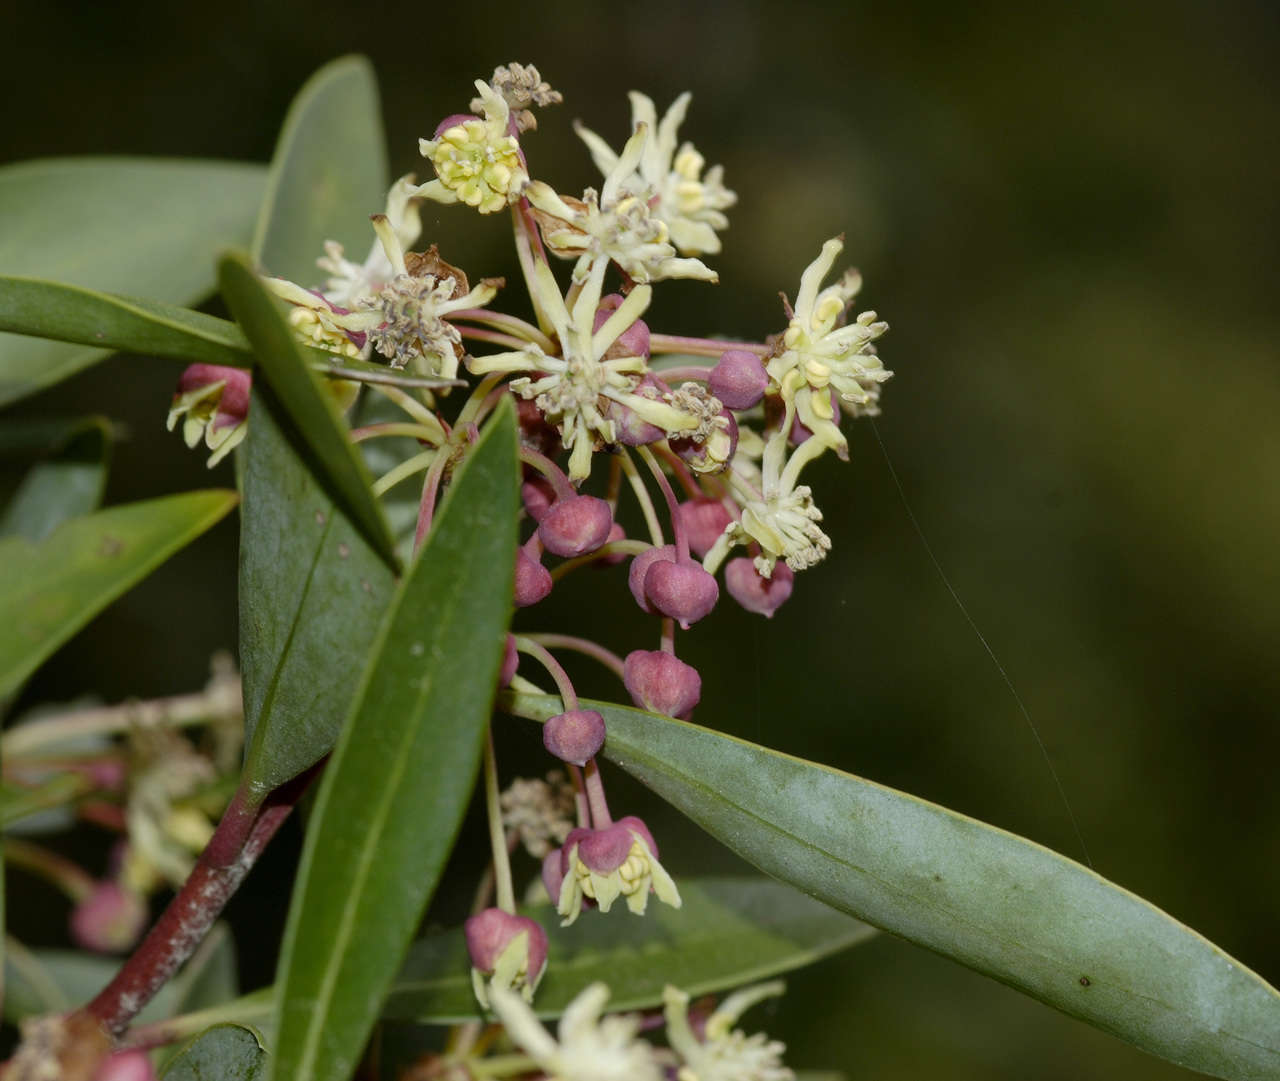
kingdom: Plantae
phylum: Tracheophyta
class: Magnoliopsida
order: Canellales
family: Winteraceae
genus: Drimys
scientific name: Drimys aromatica
